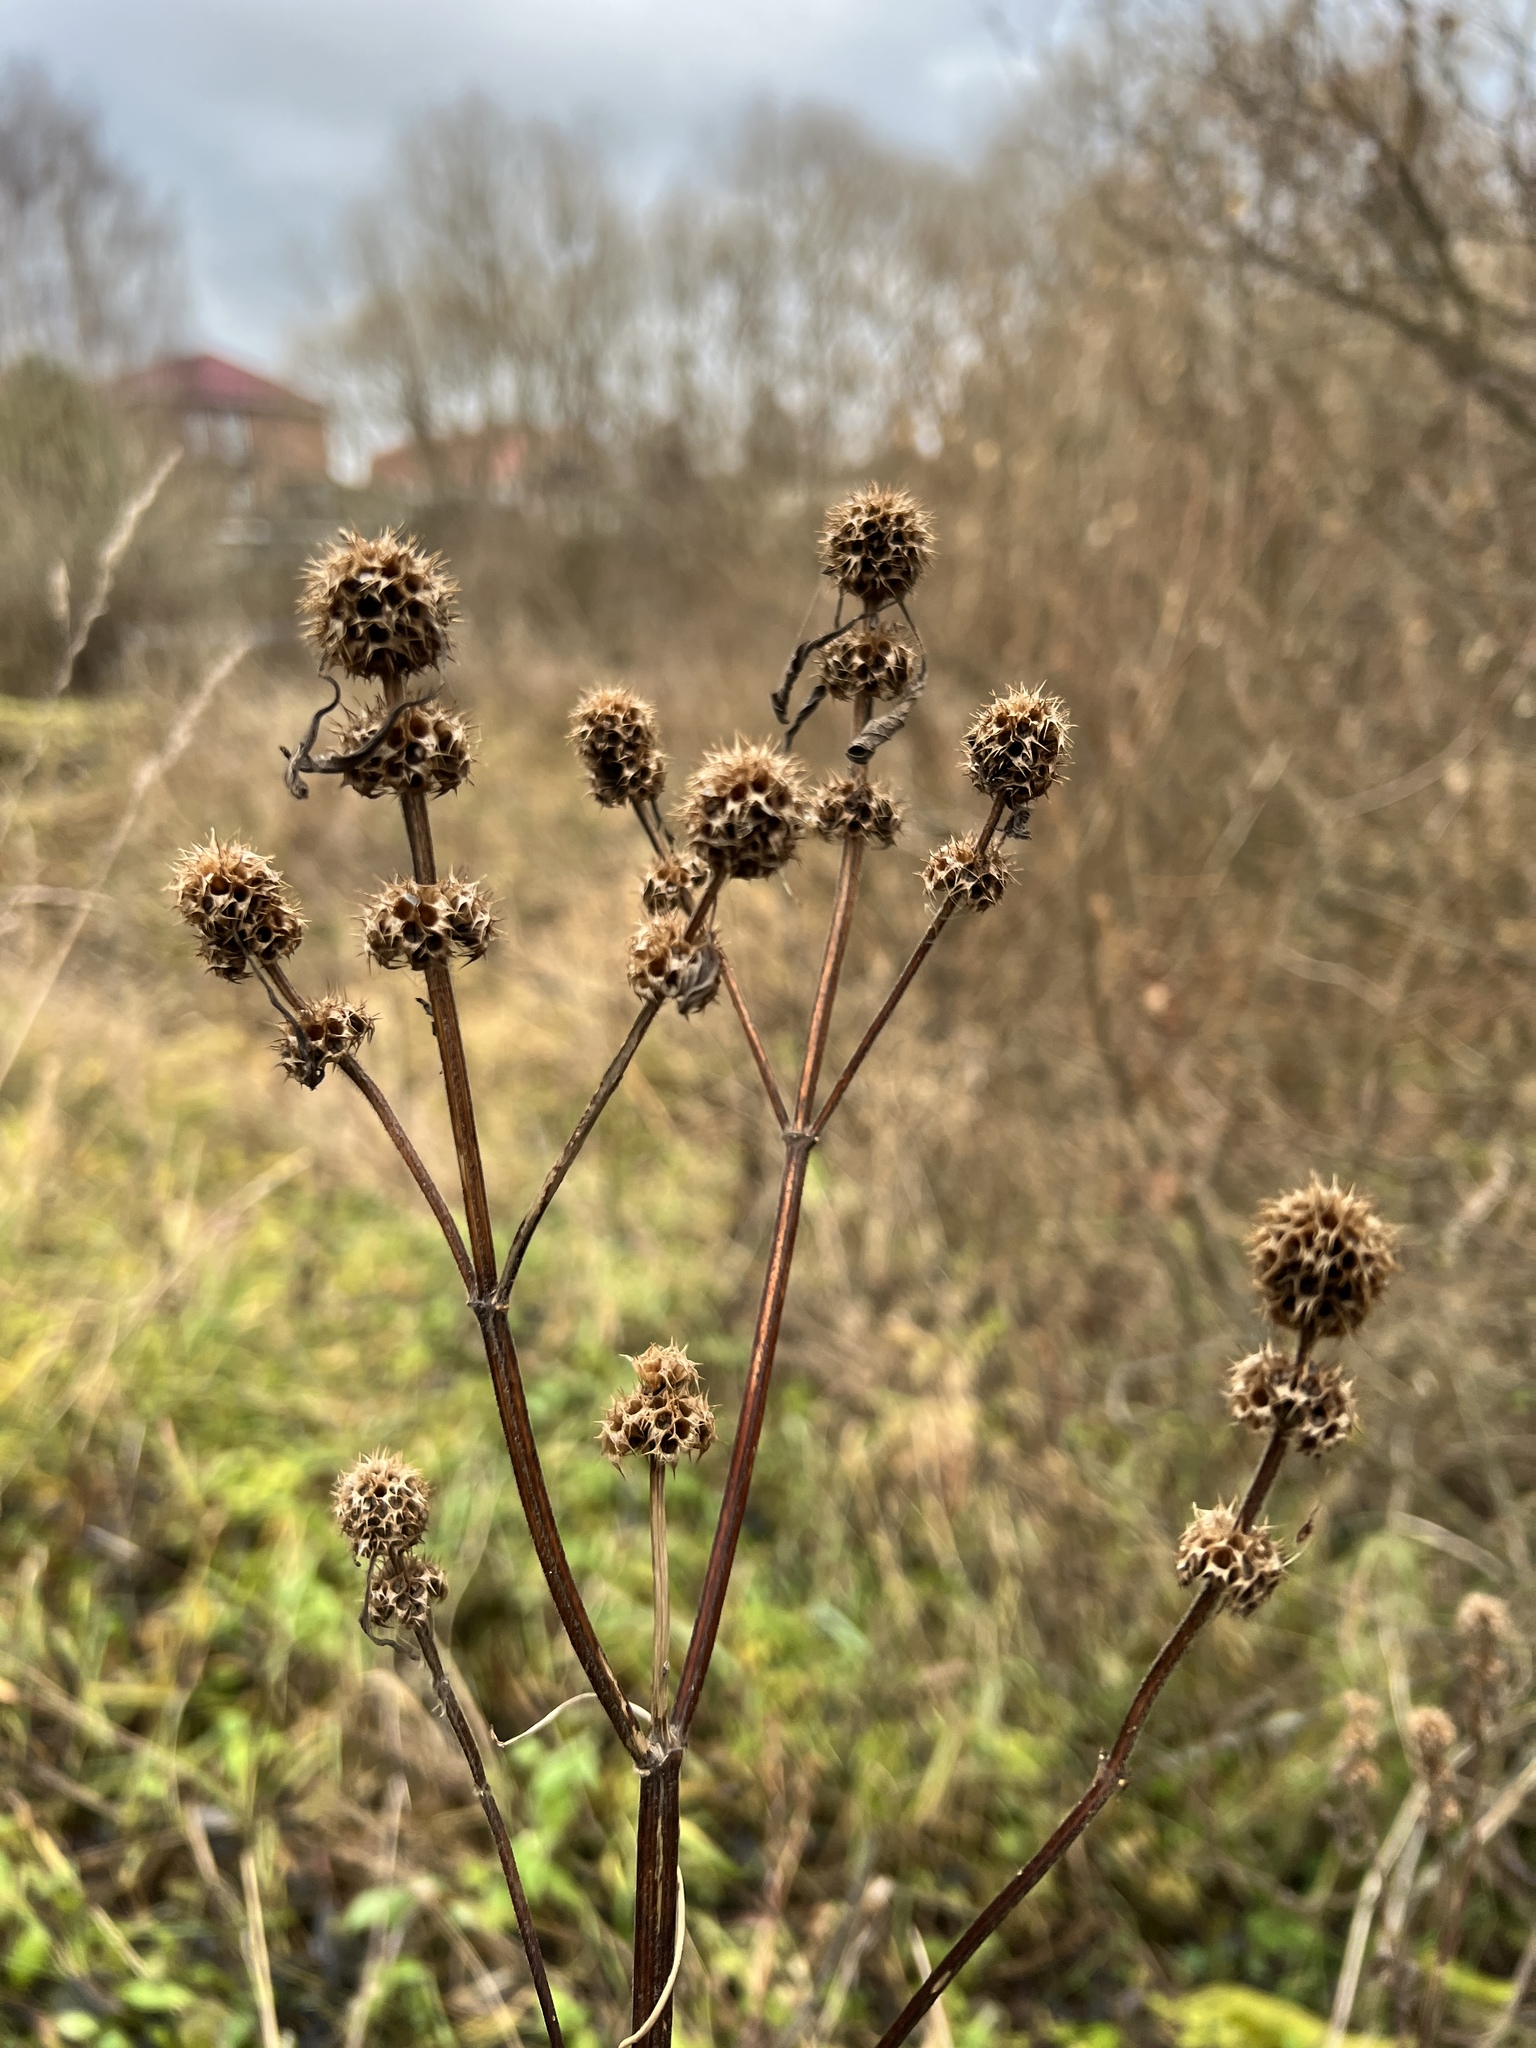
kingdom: Plantae
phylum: Tracheophyta
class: Magnoliopsida
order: Lamiales
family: Lamiaceae
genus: Leonurus
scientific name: Leonurus quinquelobatus
